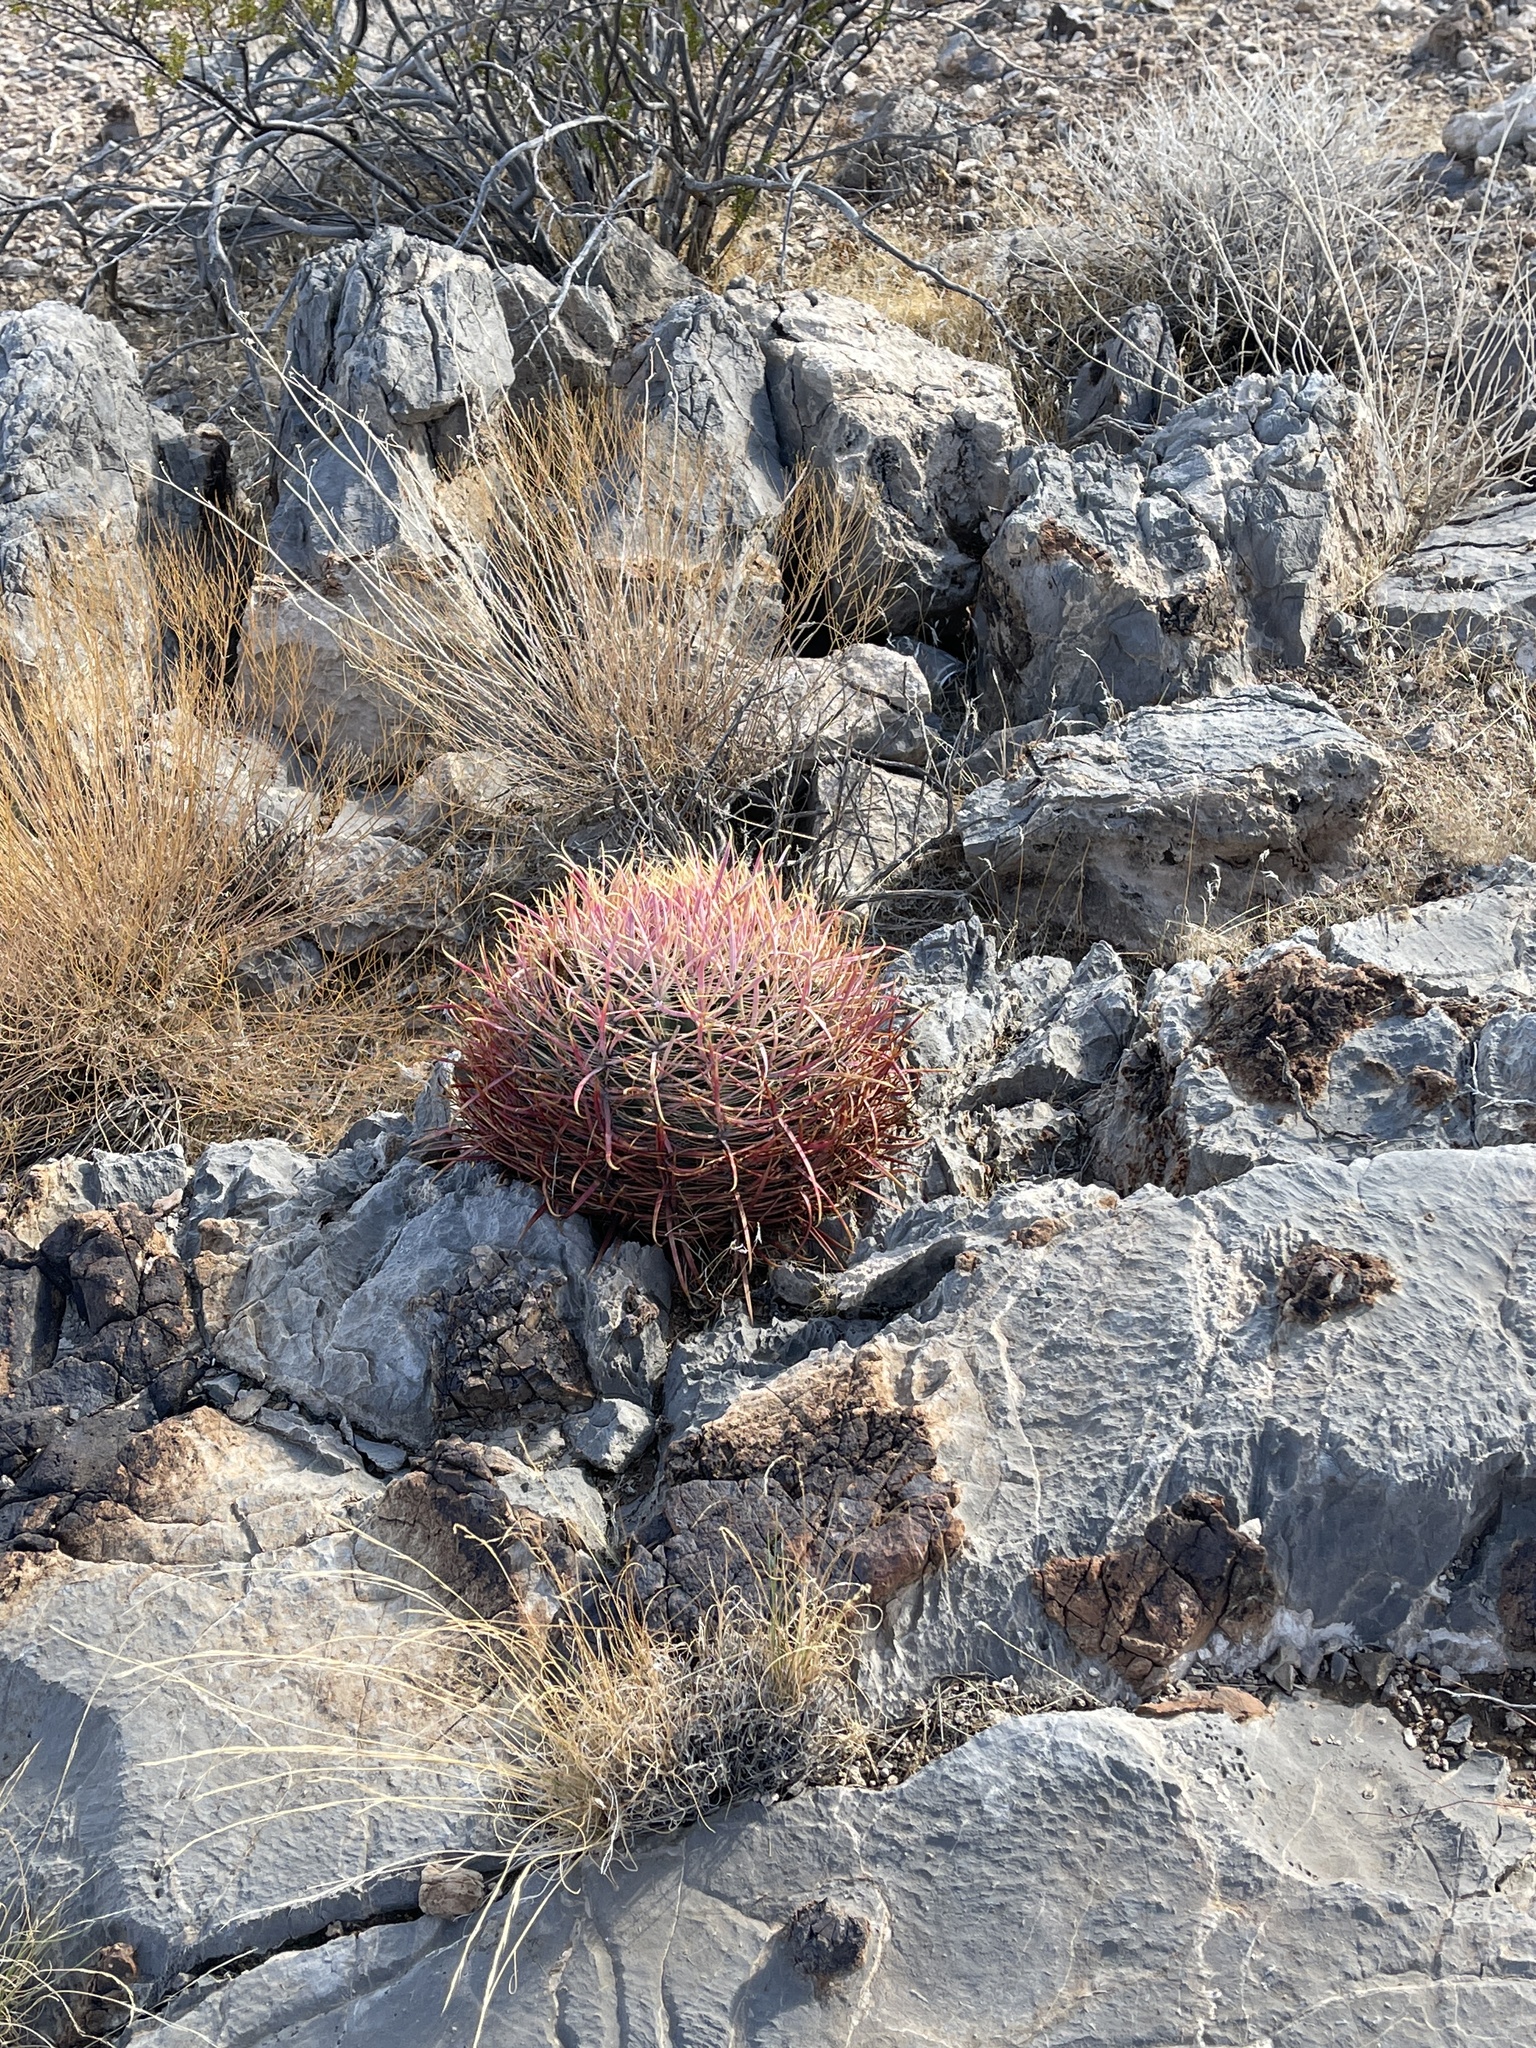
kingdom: Plantae
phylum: Tracheophyta
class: Magnoliopsida
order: Caryophyllales
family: Cactaceae
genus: Ferocactus
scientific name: Ferocactus cylindraceus
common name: California barrel cactus
